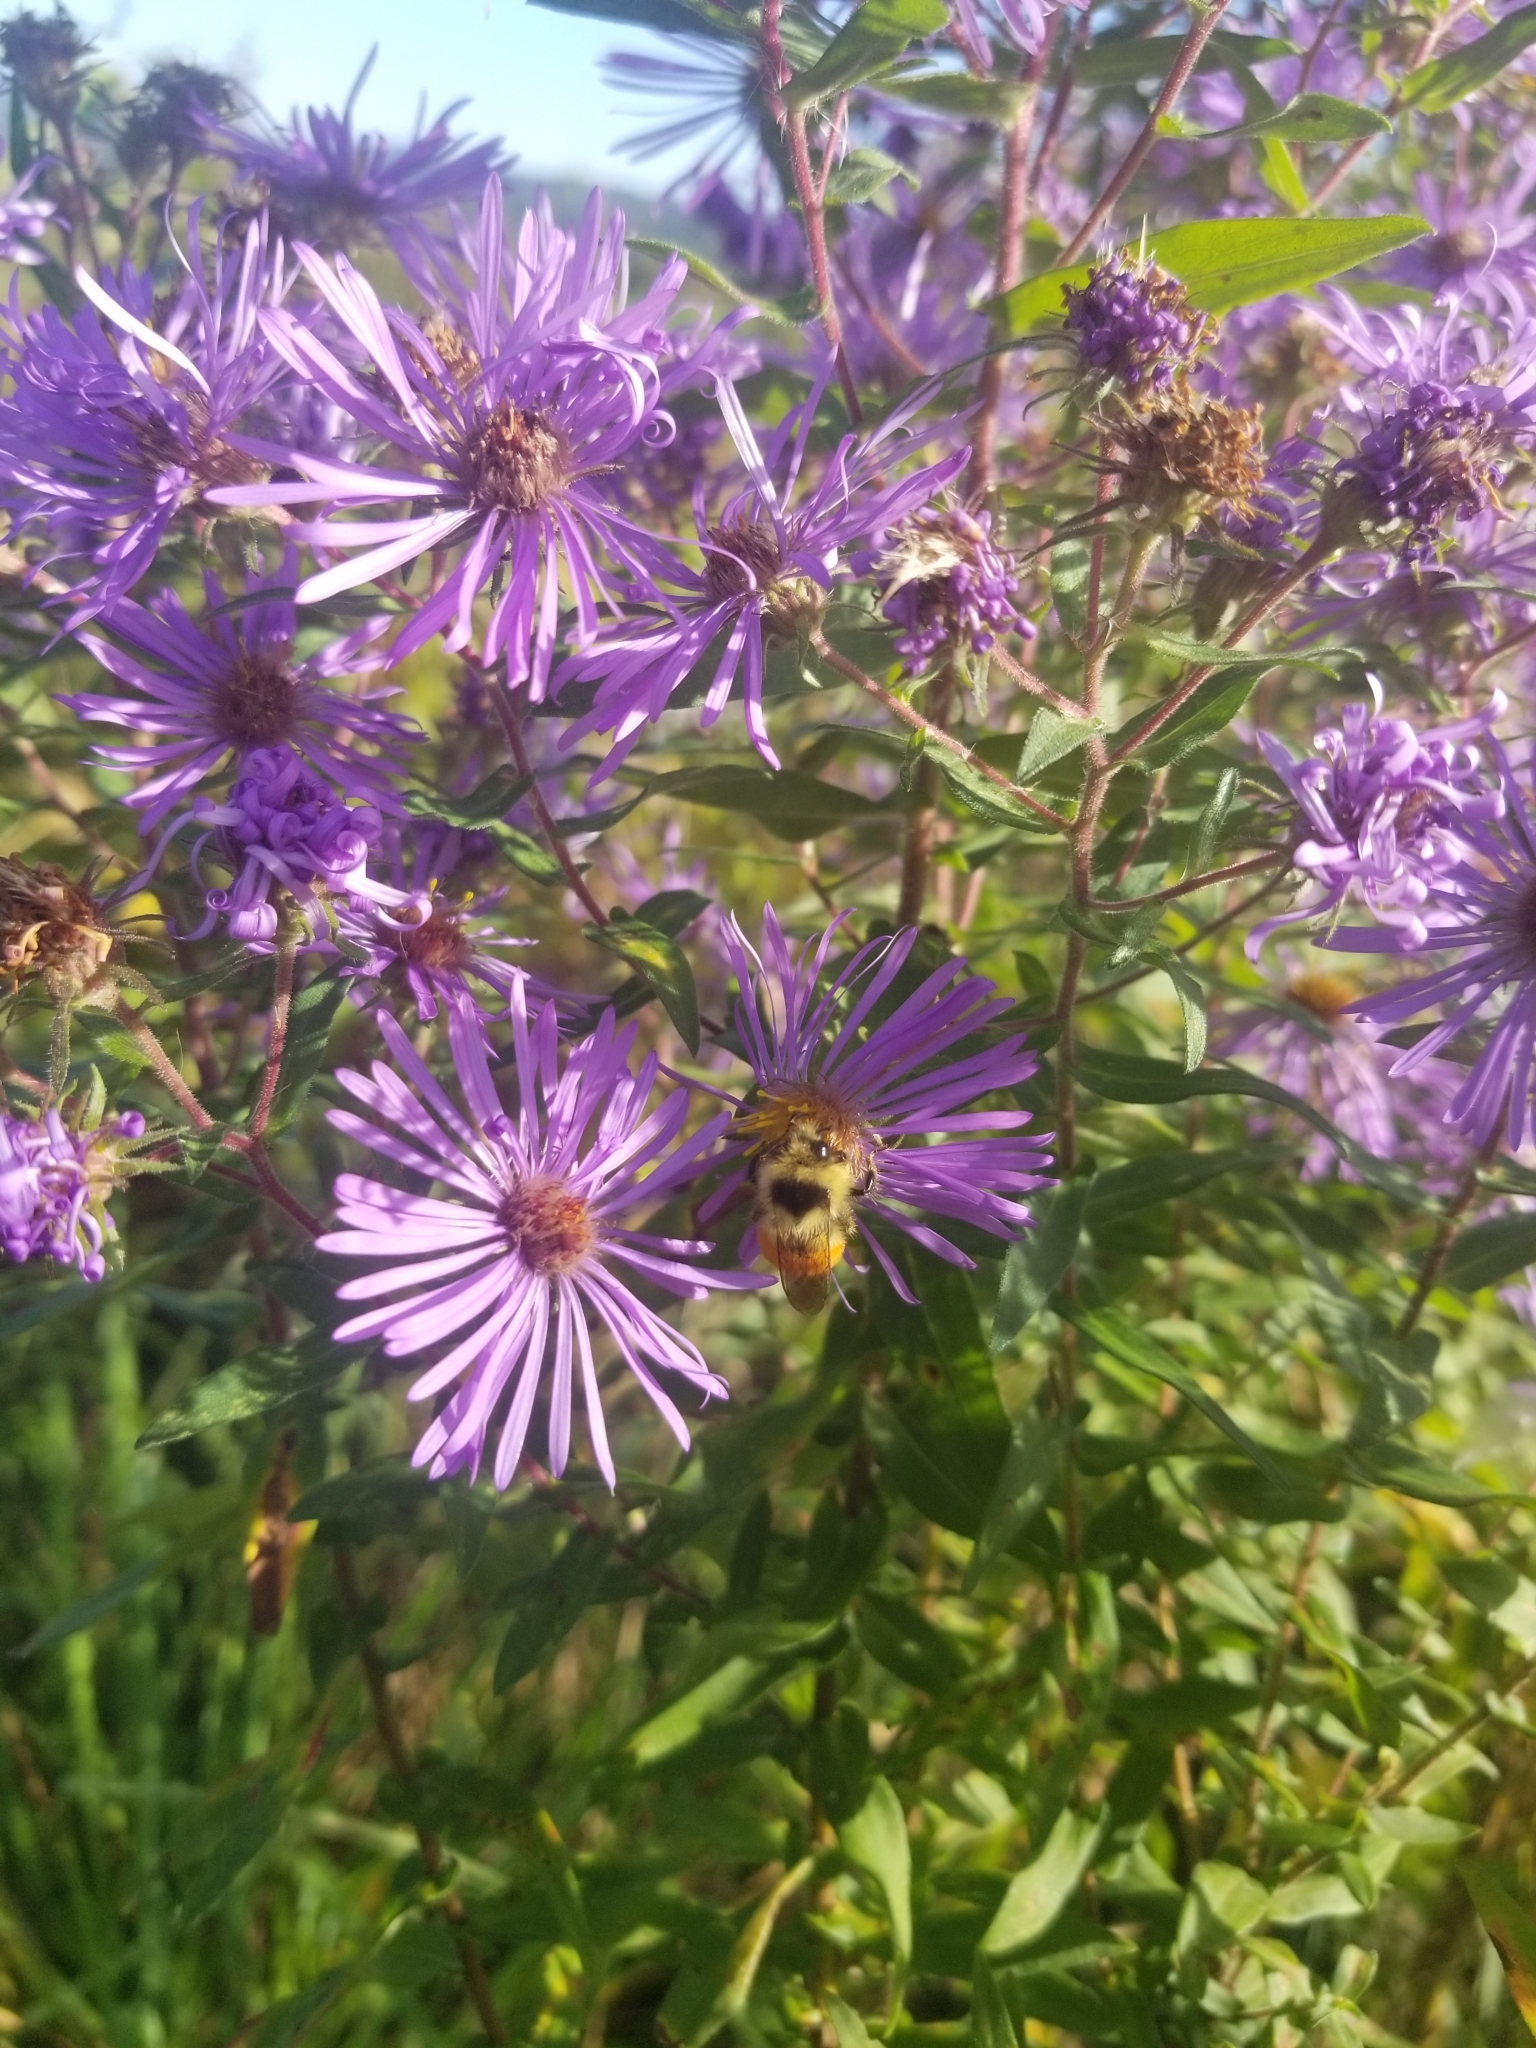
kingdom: Animalia
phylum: Arthropoda
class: Insecta
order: Hymenoptera
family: Apidae
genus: Bombus
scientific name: Bombus ternarius
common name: Tri-colored bumble bee
